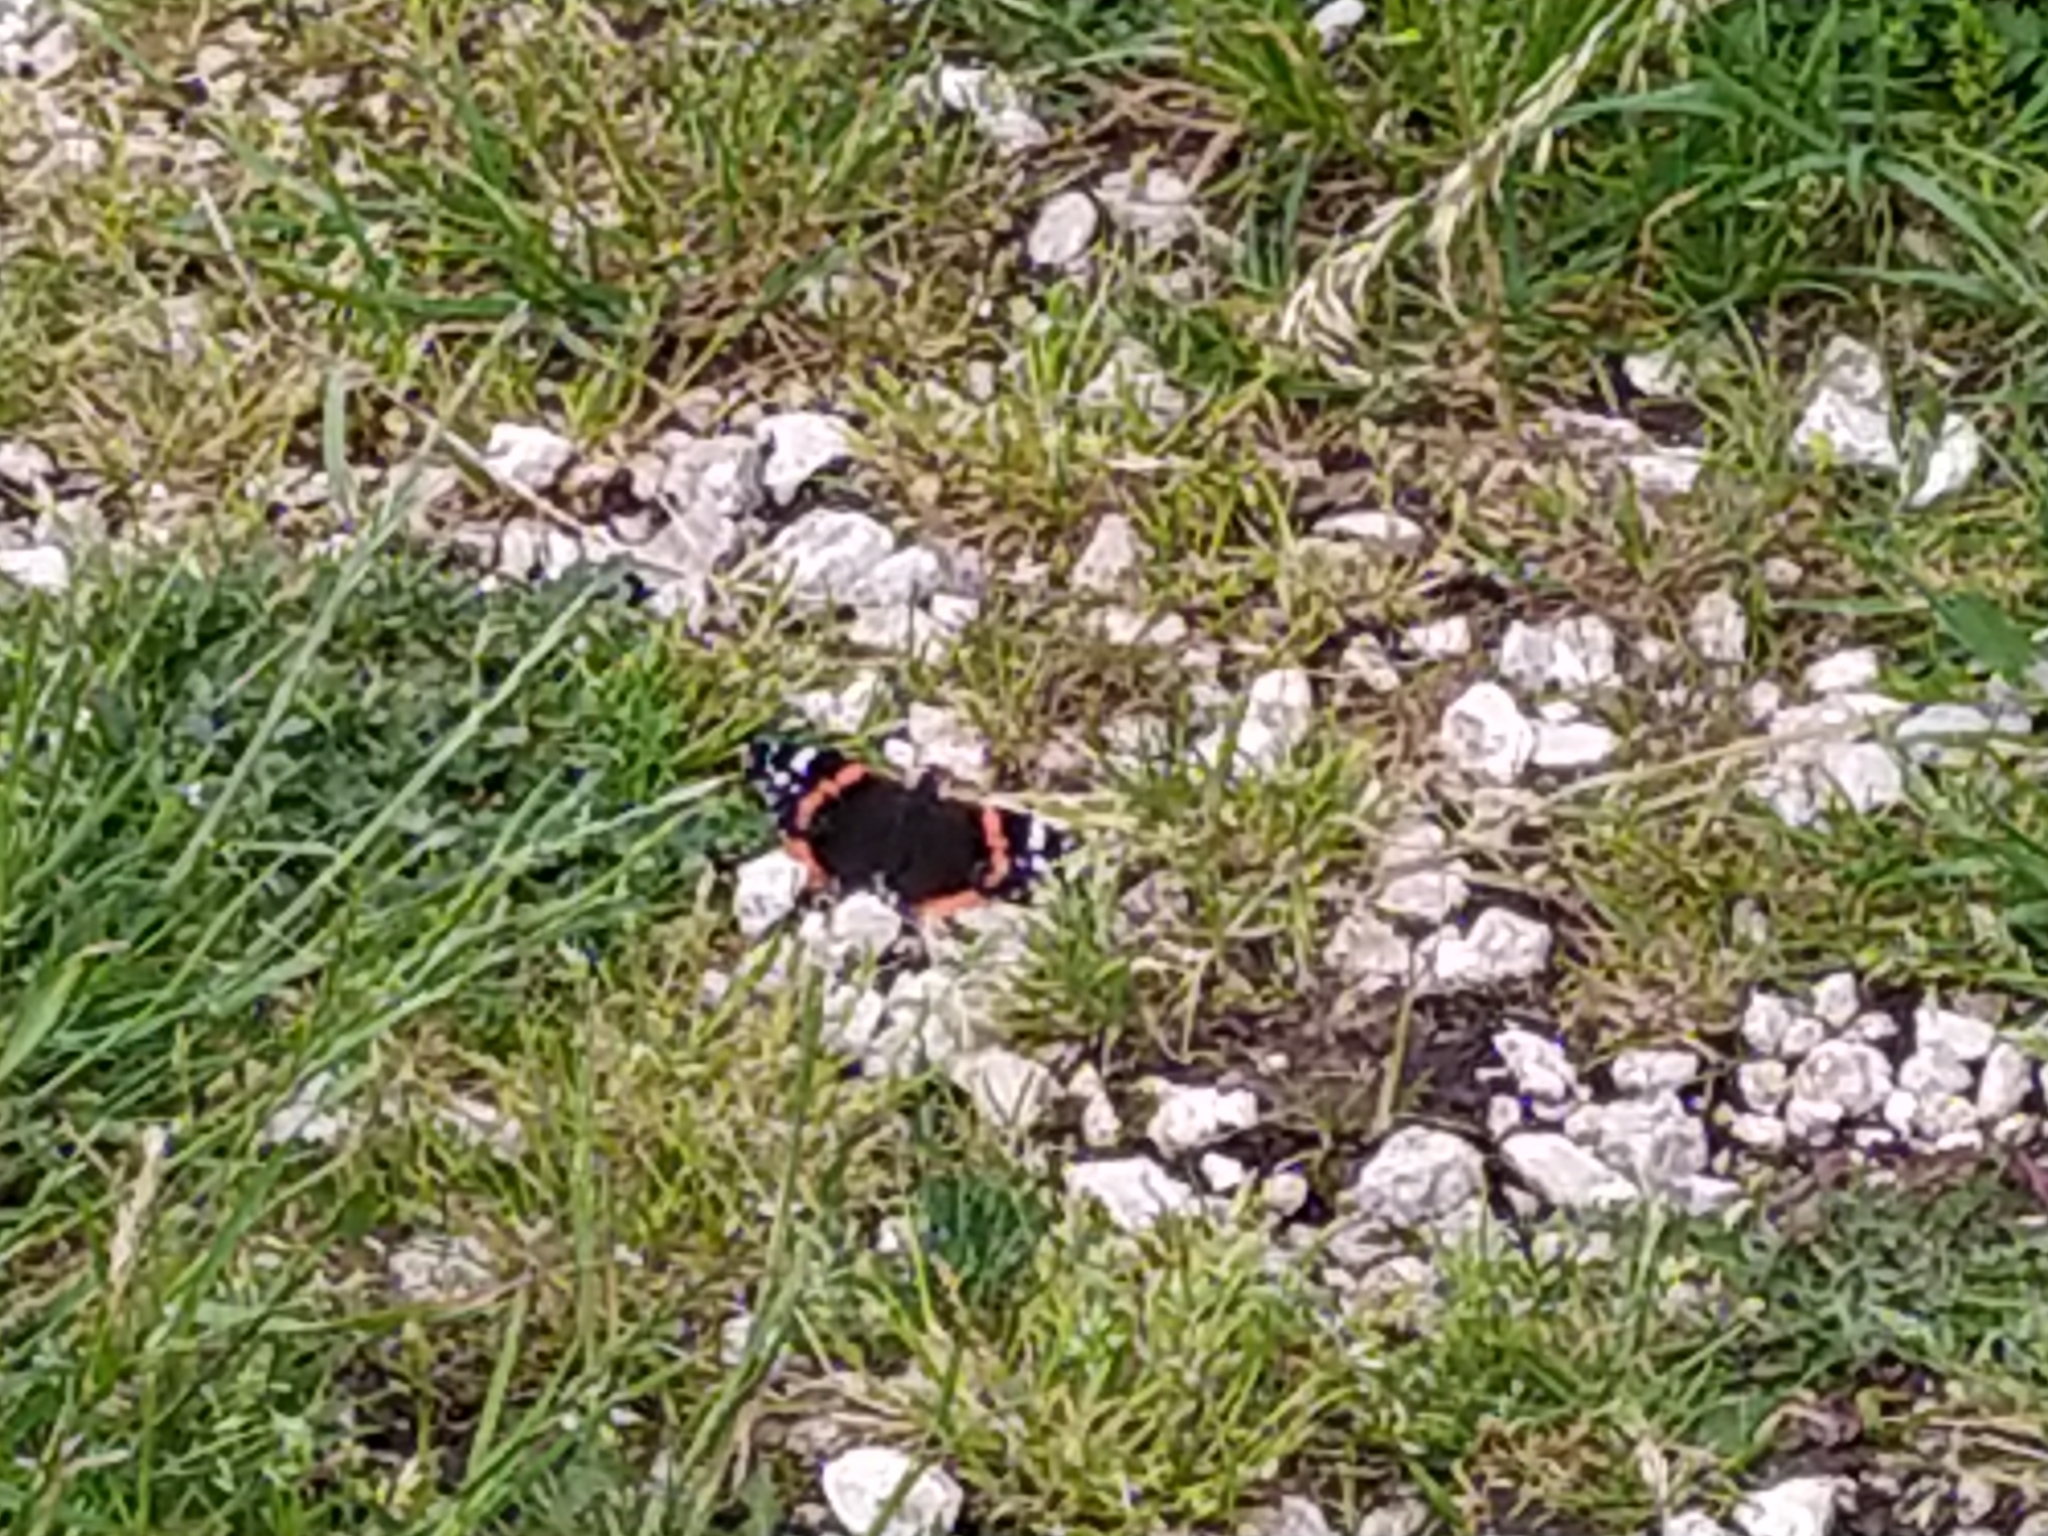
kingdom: Animalia
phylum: Arthropoda
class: Insecta
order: Lepidoptera
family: Nymphalidae
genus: Vanessa
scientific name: Vanessa atalanta
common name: Red admiral
